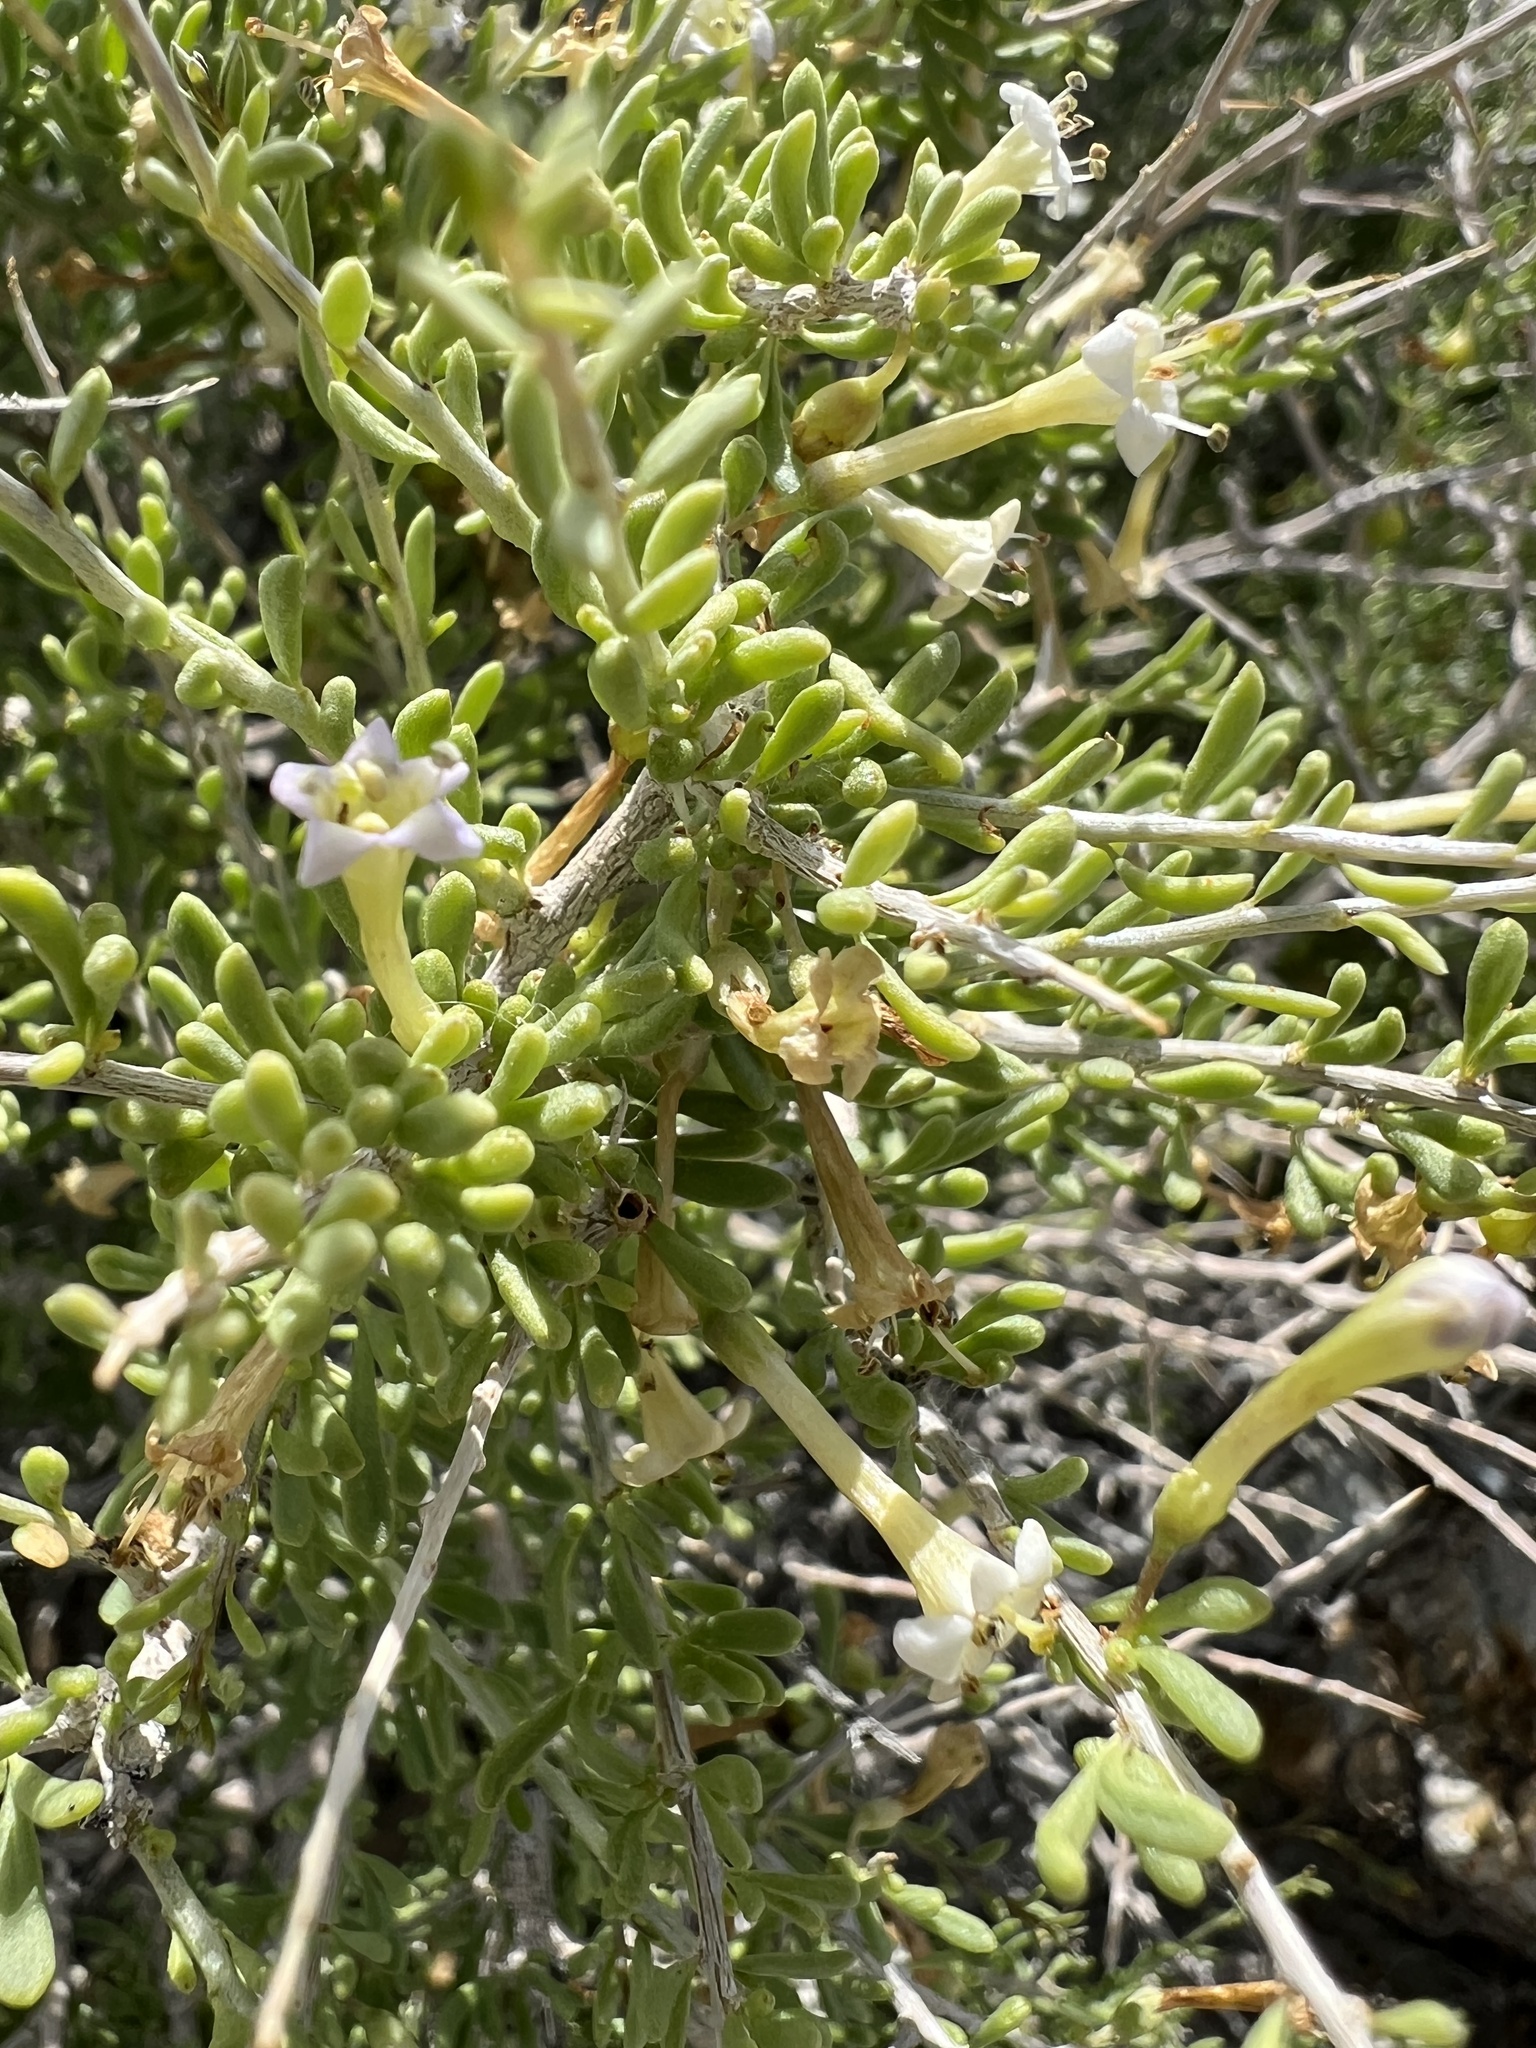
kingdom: Plantae
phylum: Tracheophyta
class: Magnoliopsida
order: Solanales
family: Solanaceae
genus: Lycium
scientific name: Lycium andersonii
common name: Water-jacket
